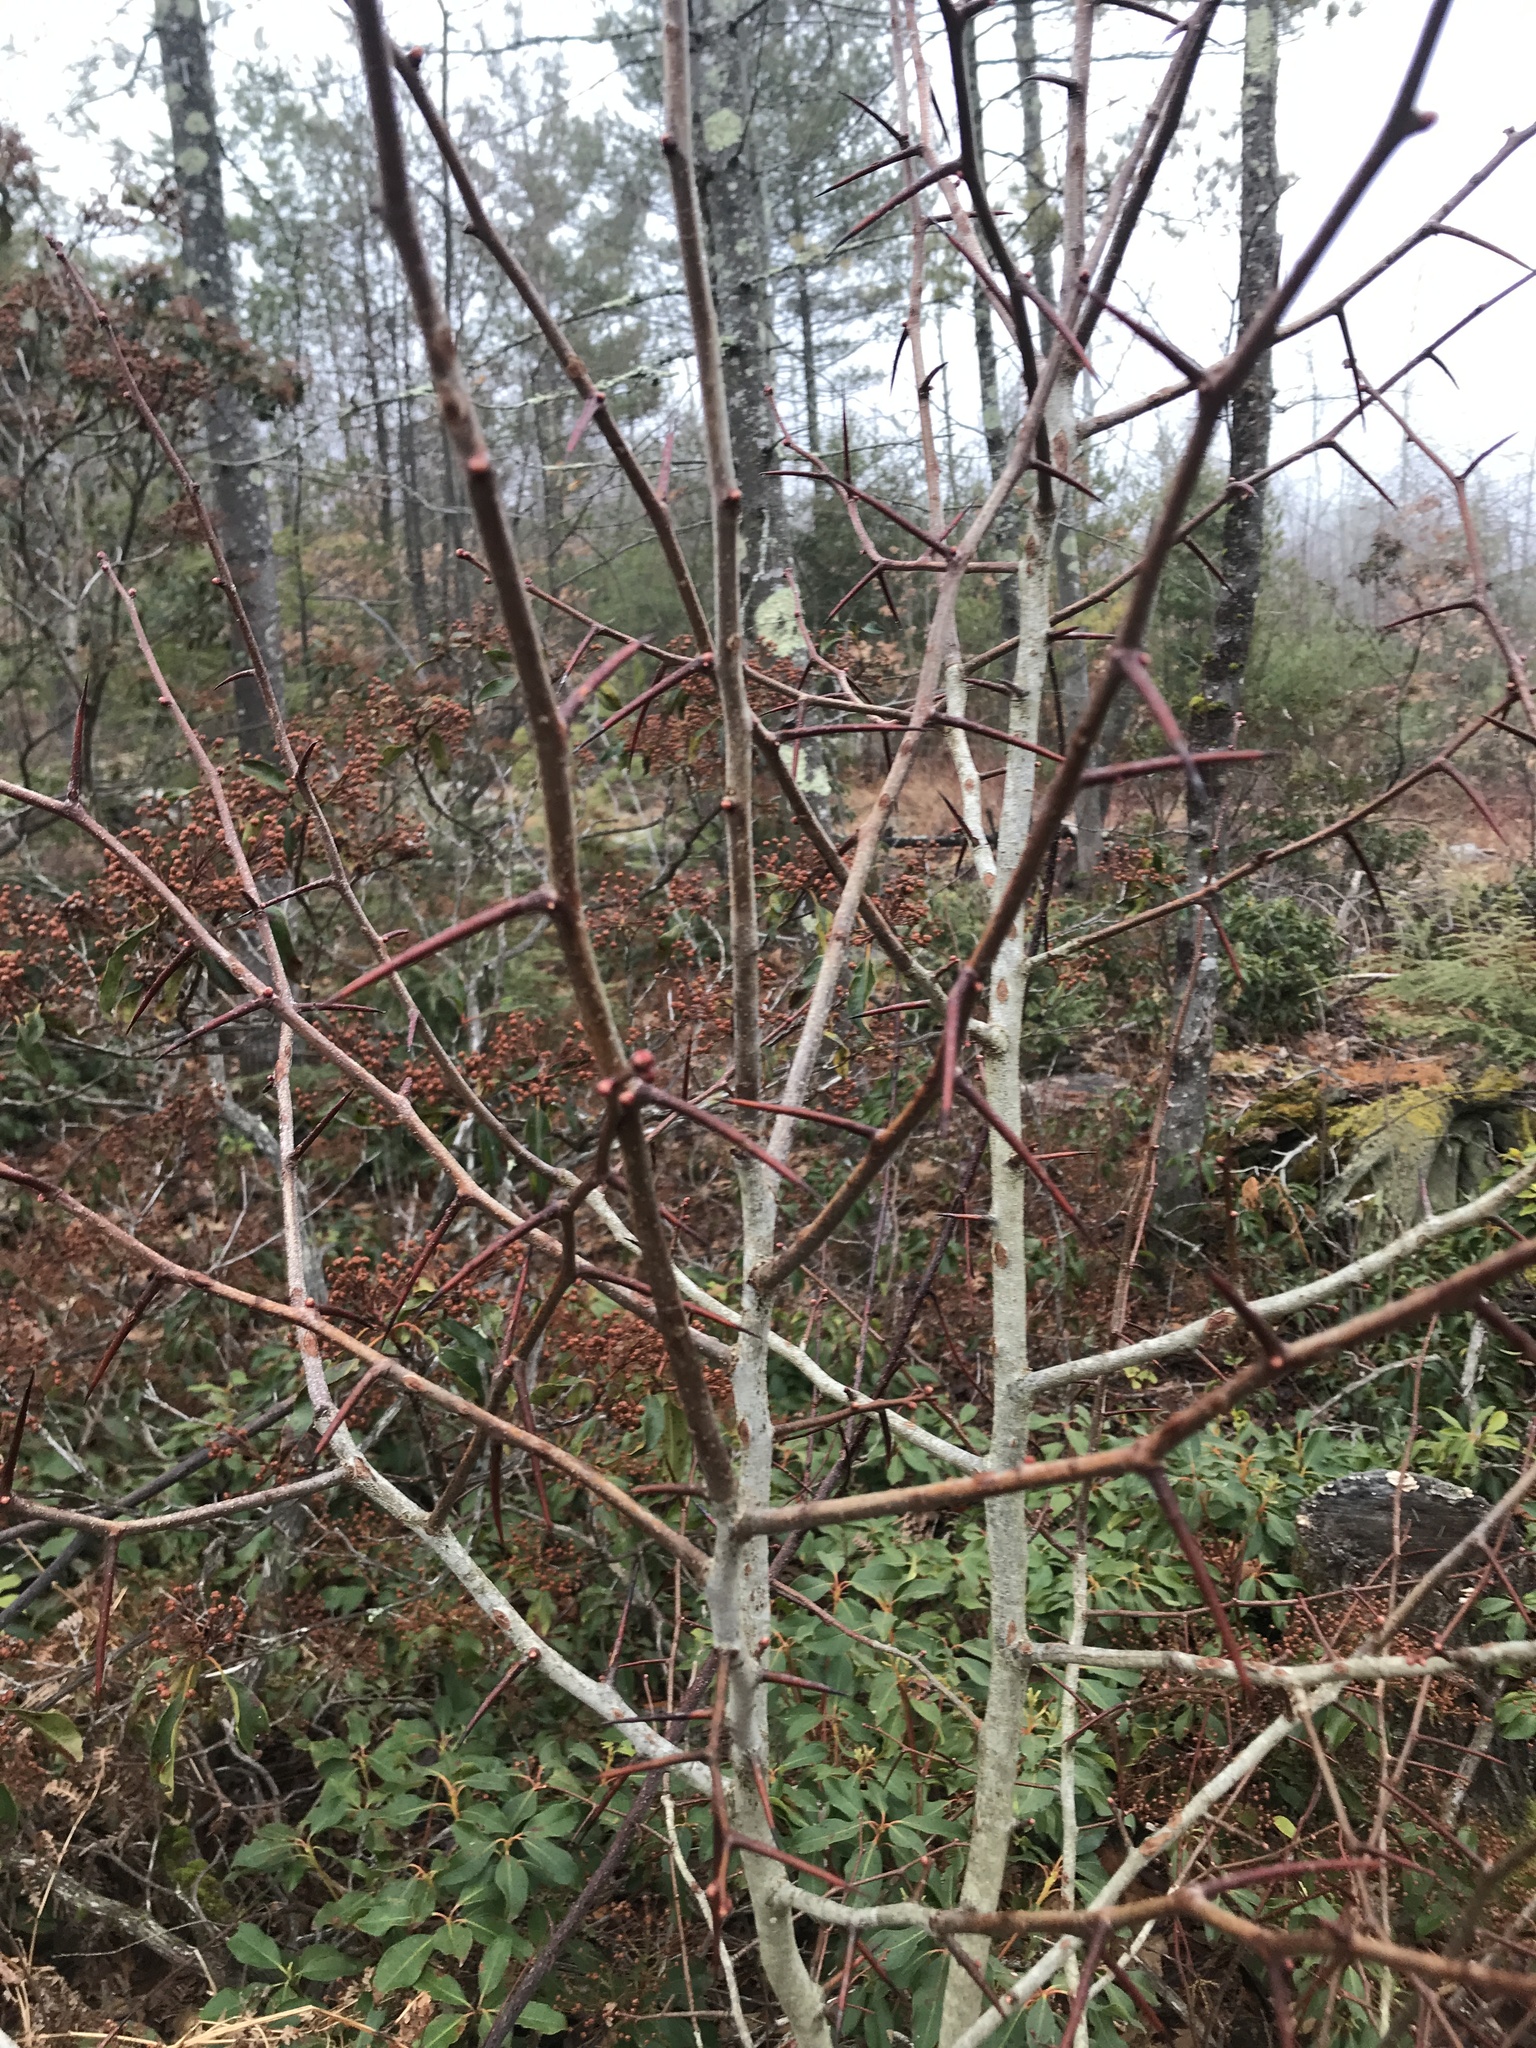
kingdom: Plantae
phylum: Tracheophyta
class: Magnoliopsida
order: Rosales
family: Rosaceae
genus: Crataegus
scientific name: Crataegus
